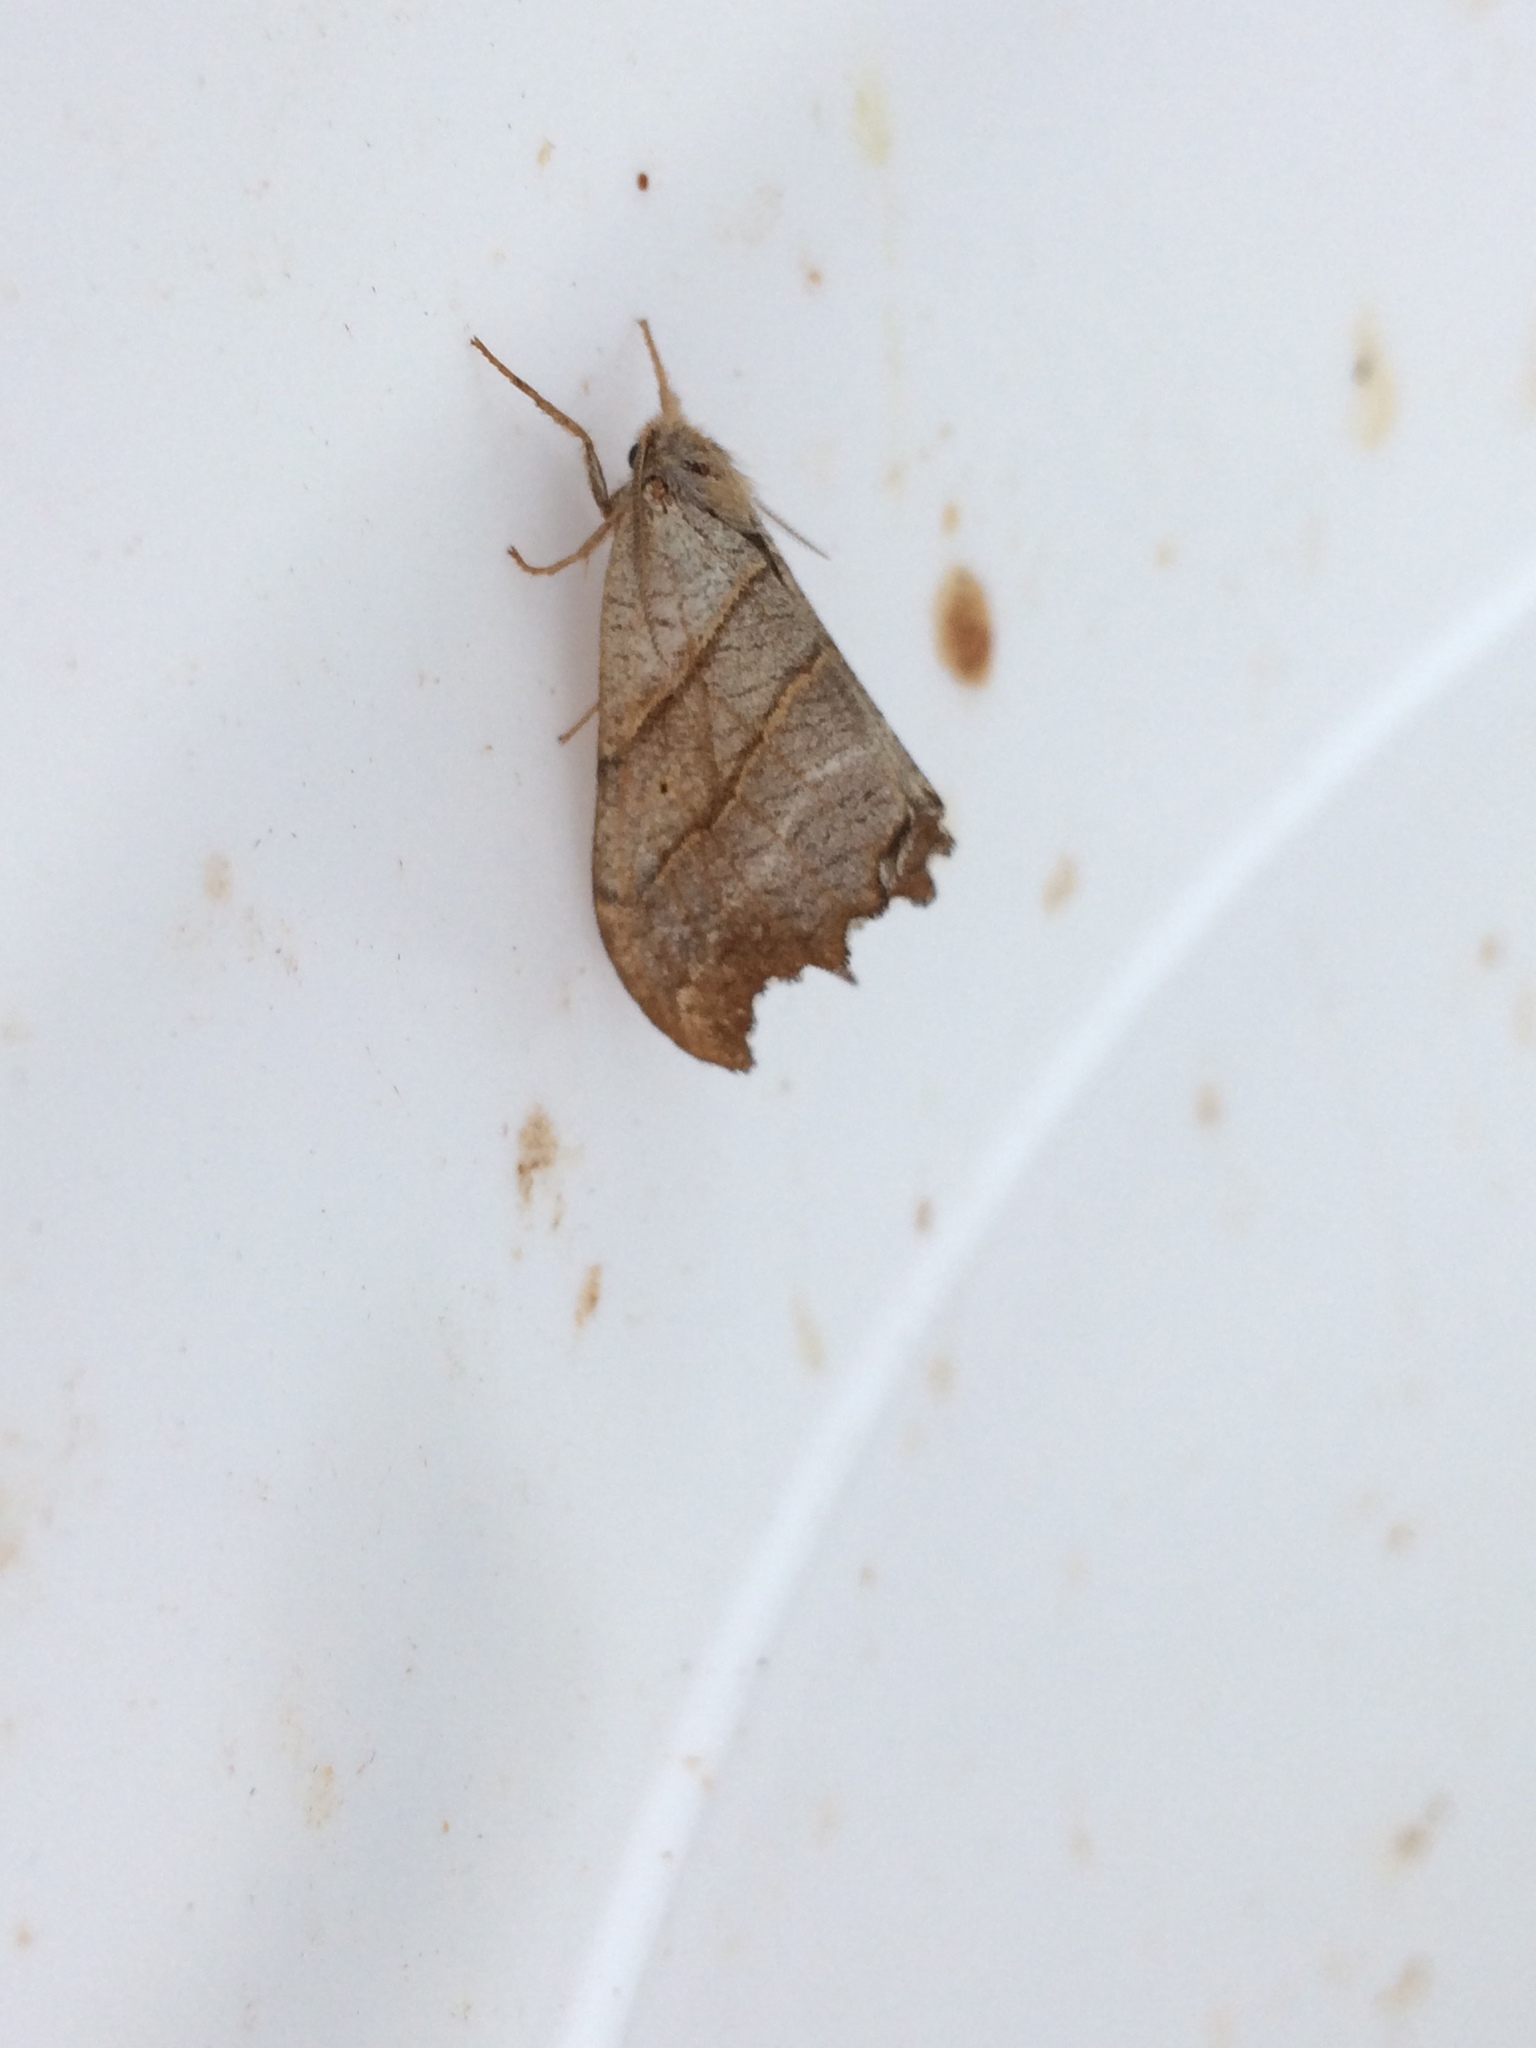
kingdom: Animalia
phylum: Arthropoda
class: Insecta
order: Lepidoptera
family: Drepanidae
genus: Falcaria
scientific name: Falcaria lacertinaria
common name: Scalloped hook-tip
